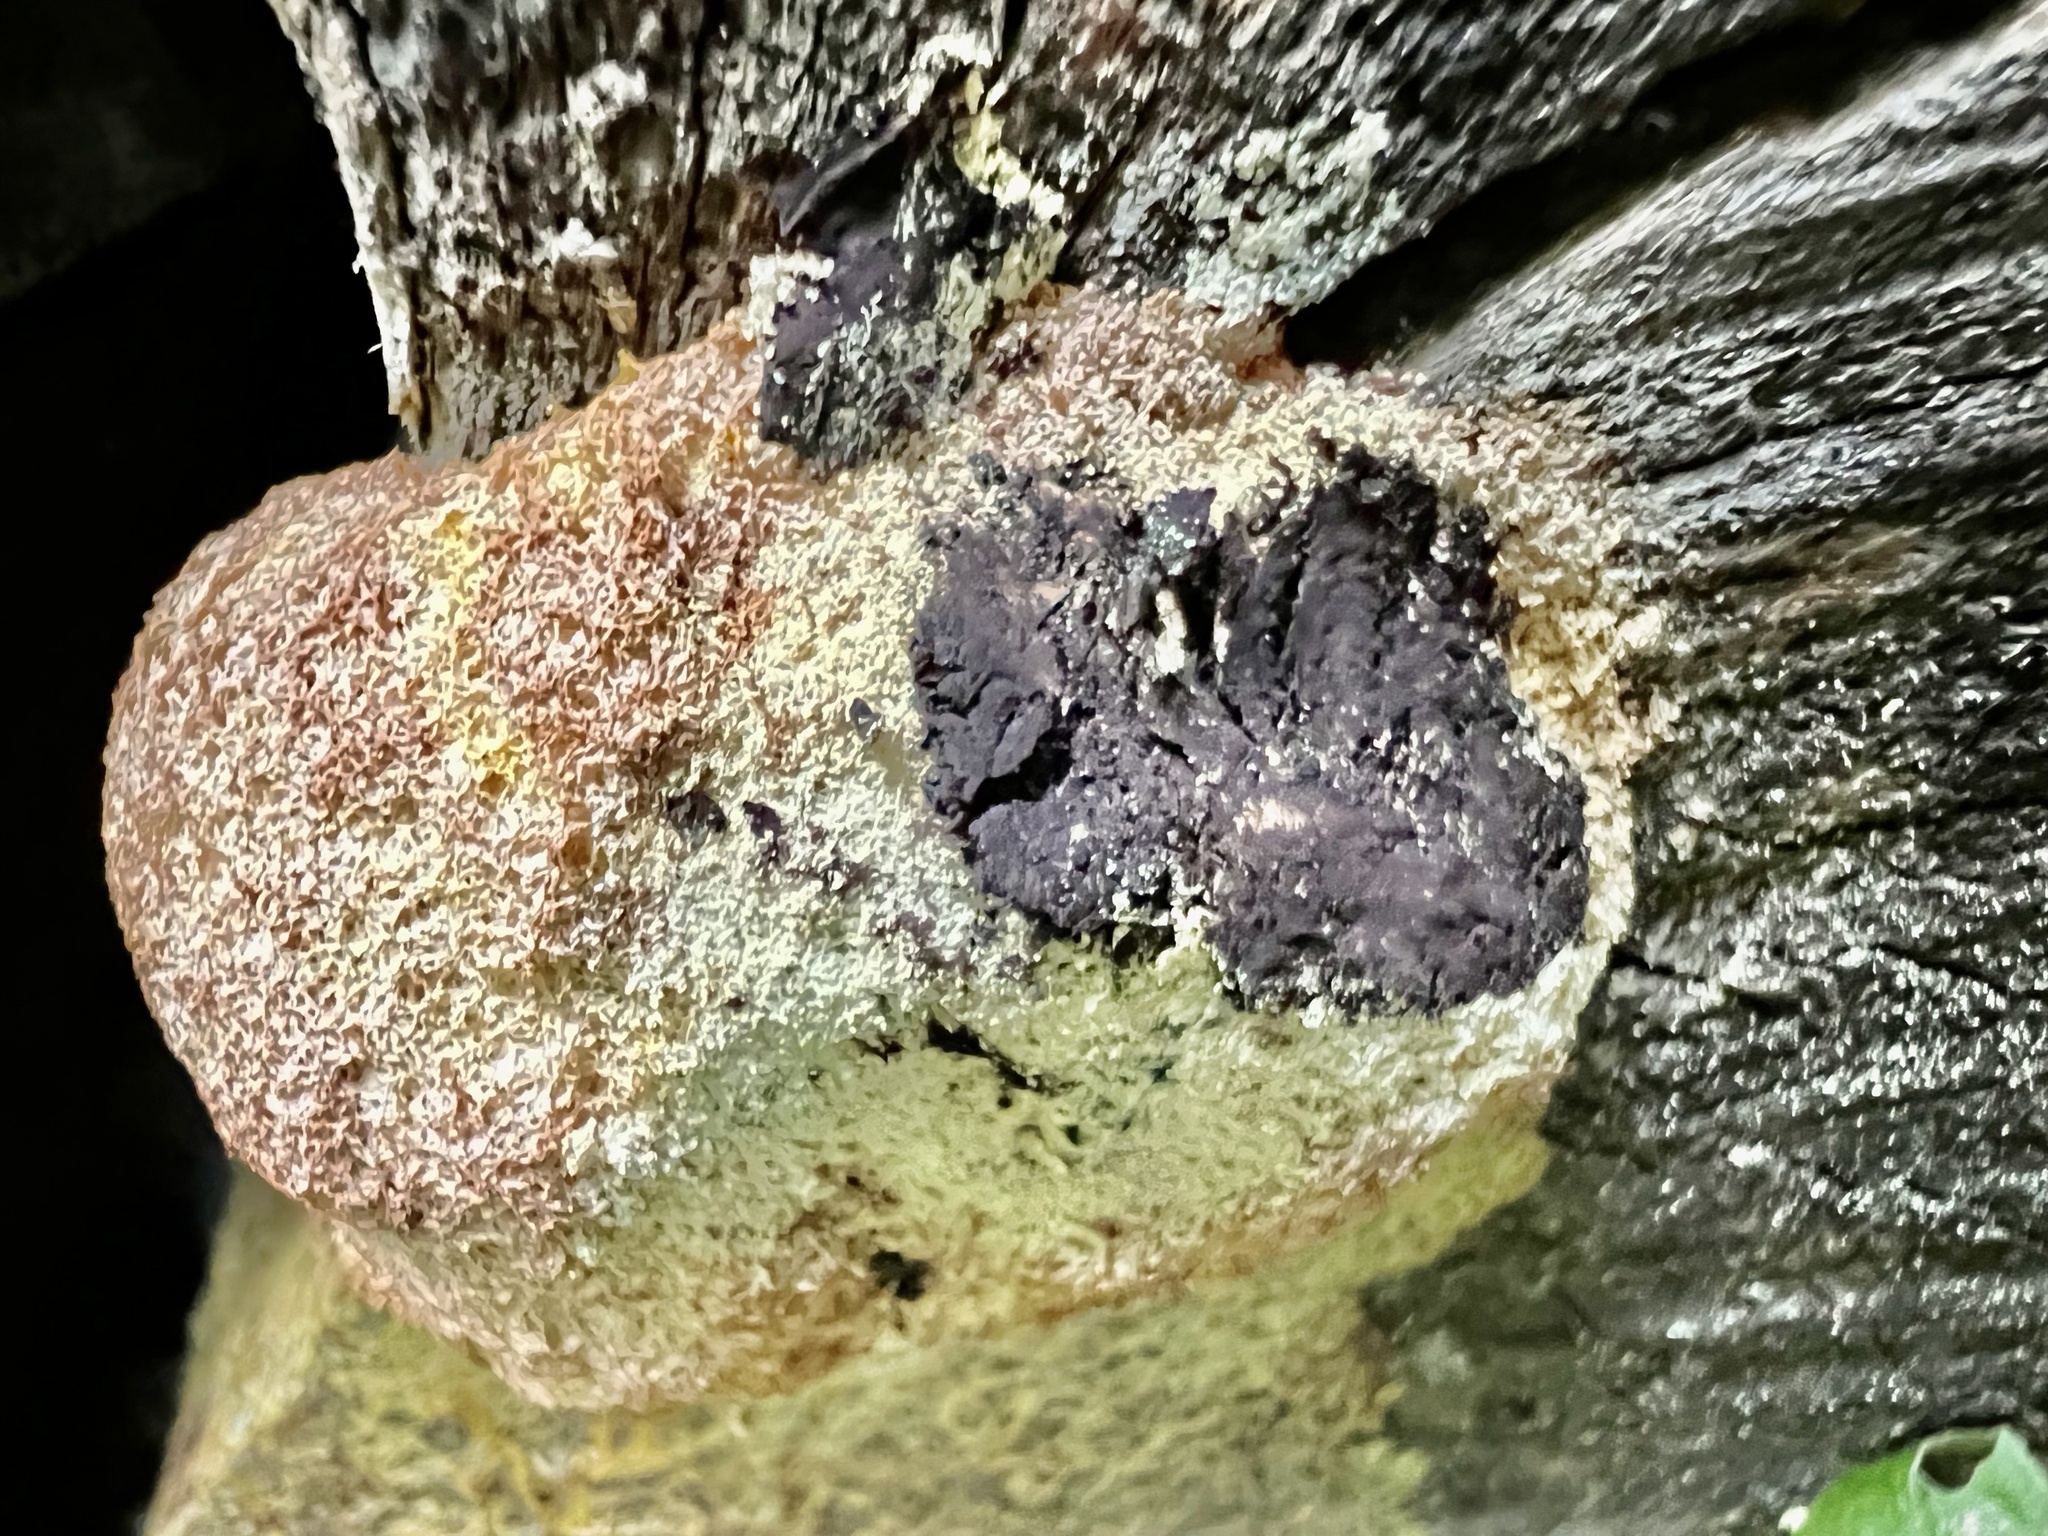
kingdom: Protozoa
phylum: Mycetozoa
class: Myxomycetes
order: Physarales
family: Physaraceae
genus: Fuligo
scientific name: Fuligo septica
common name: Dog vomit slime mold
